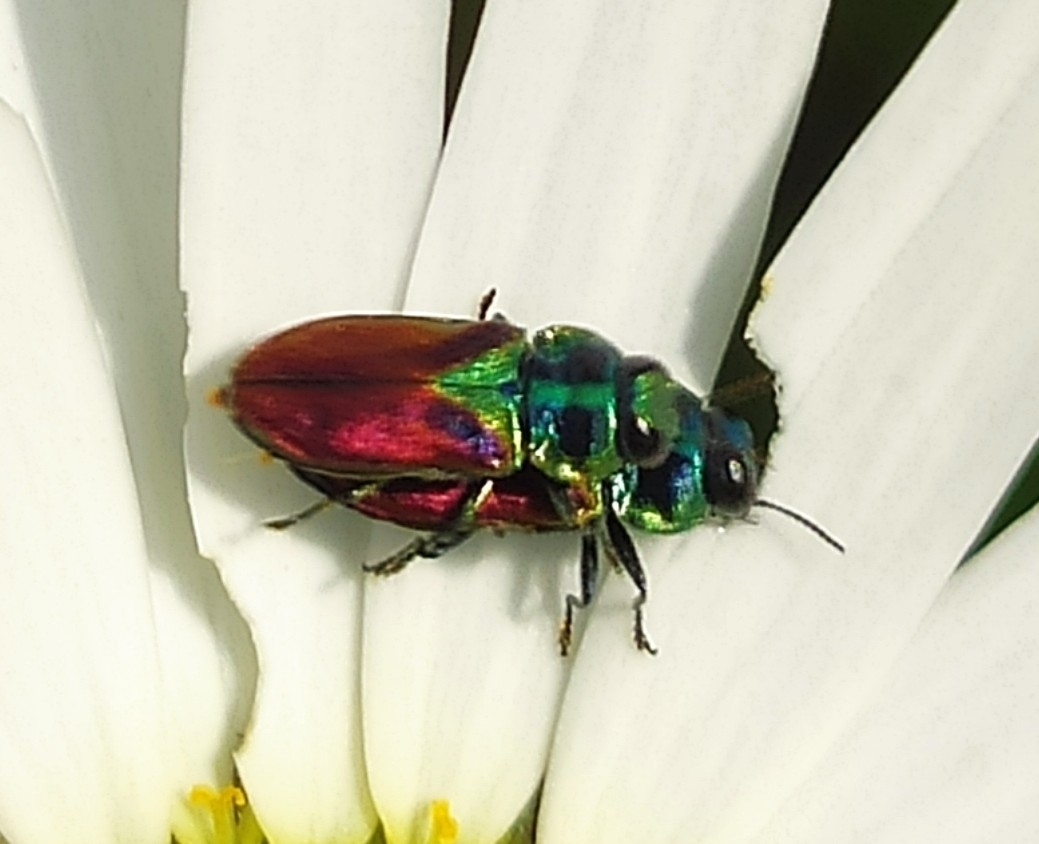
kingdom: Animalia
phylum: Arthropoda
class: Insecta
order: Coleoptera
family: Buprestidae
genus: Anthaxia
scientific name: Anthaxia bicolor
